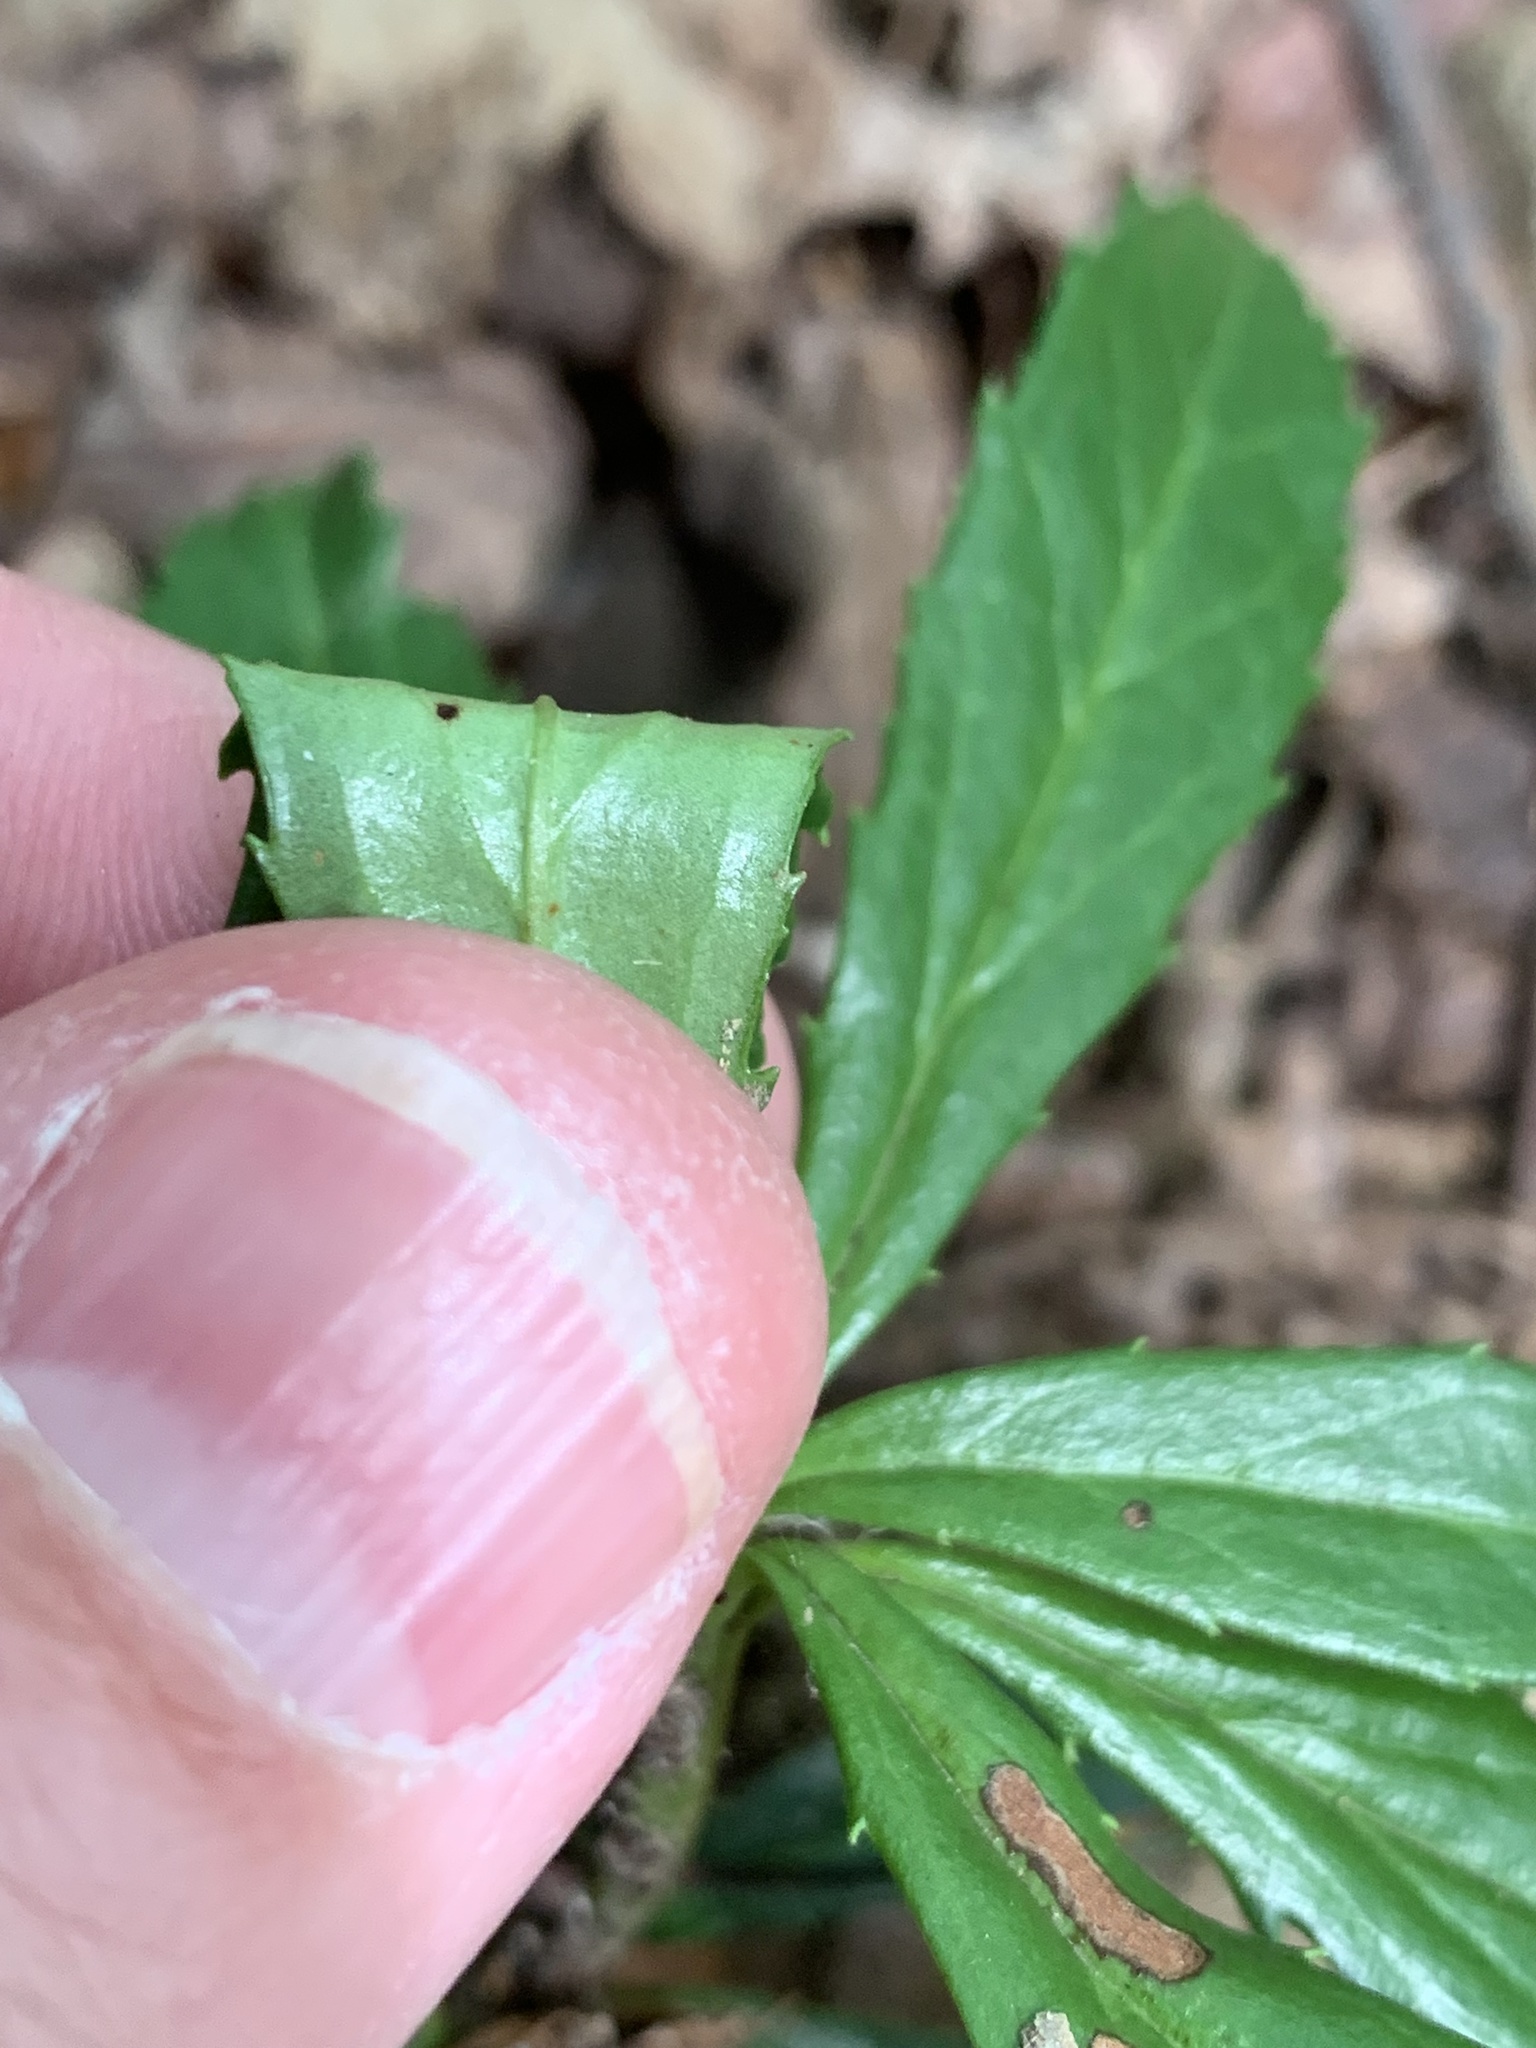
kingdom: Plantae
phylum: Tracheophyta
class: Magnoliopsida
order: Ericales
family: Ericaceae
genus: Chimaphila
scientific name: Chimaphila umbellata
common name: Pipsissewa
